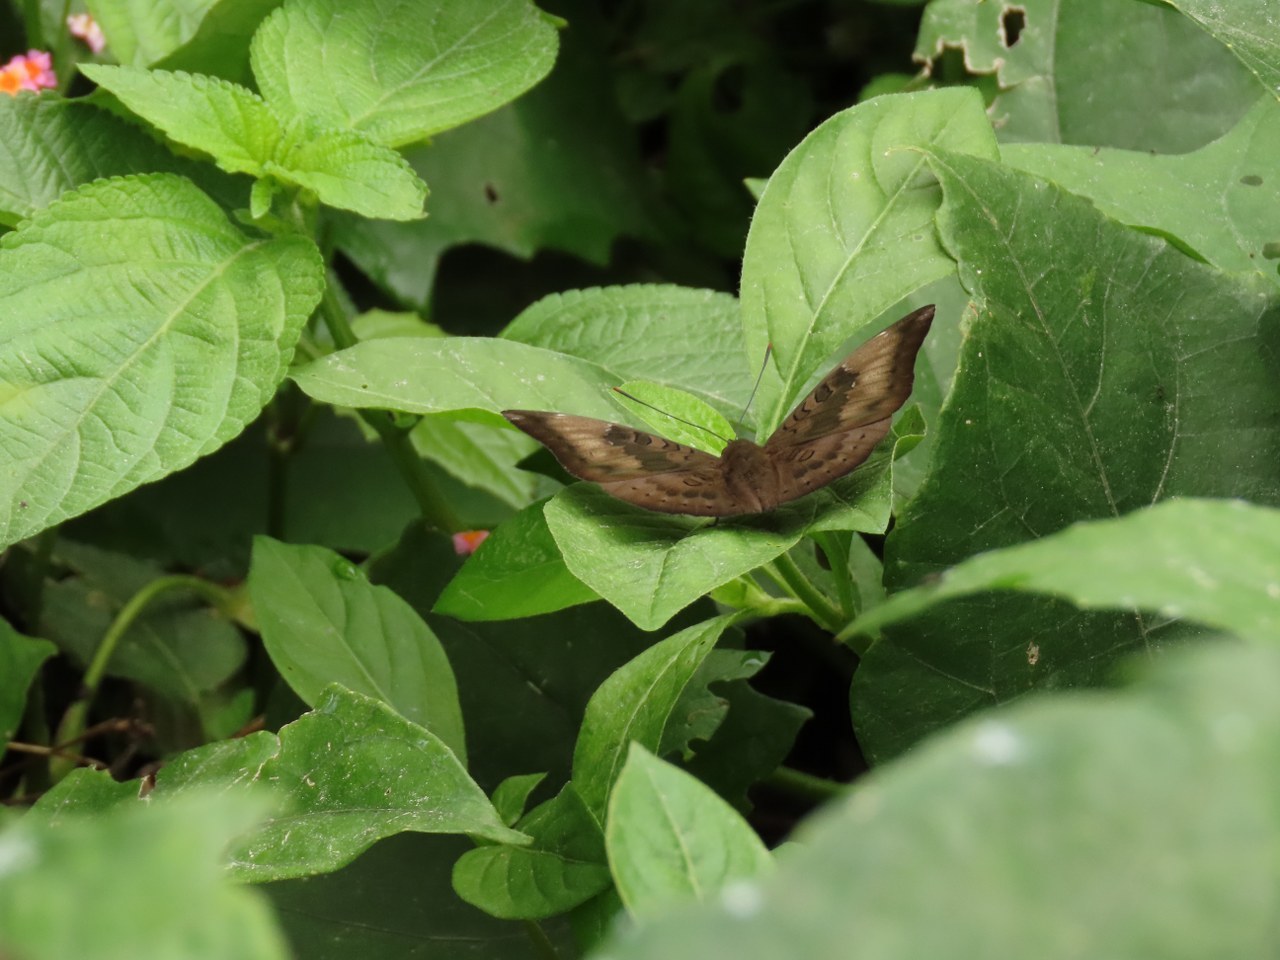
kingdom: Animalia
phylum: Arthropoda
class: Insecta
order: Lepidoptera
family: Nymphalidae
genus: Euthalia
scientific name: Euthalia aconthea
